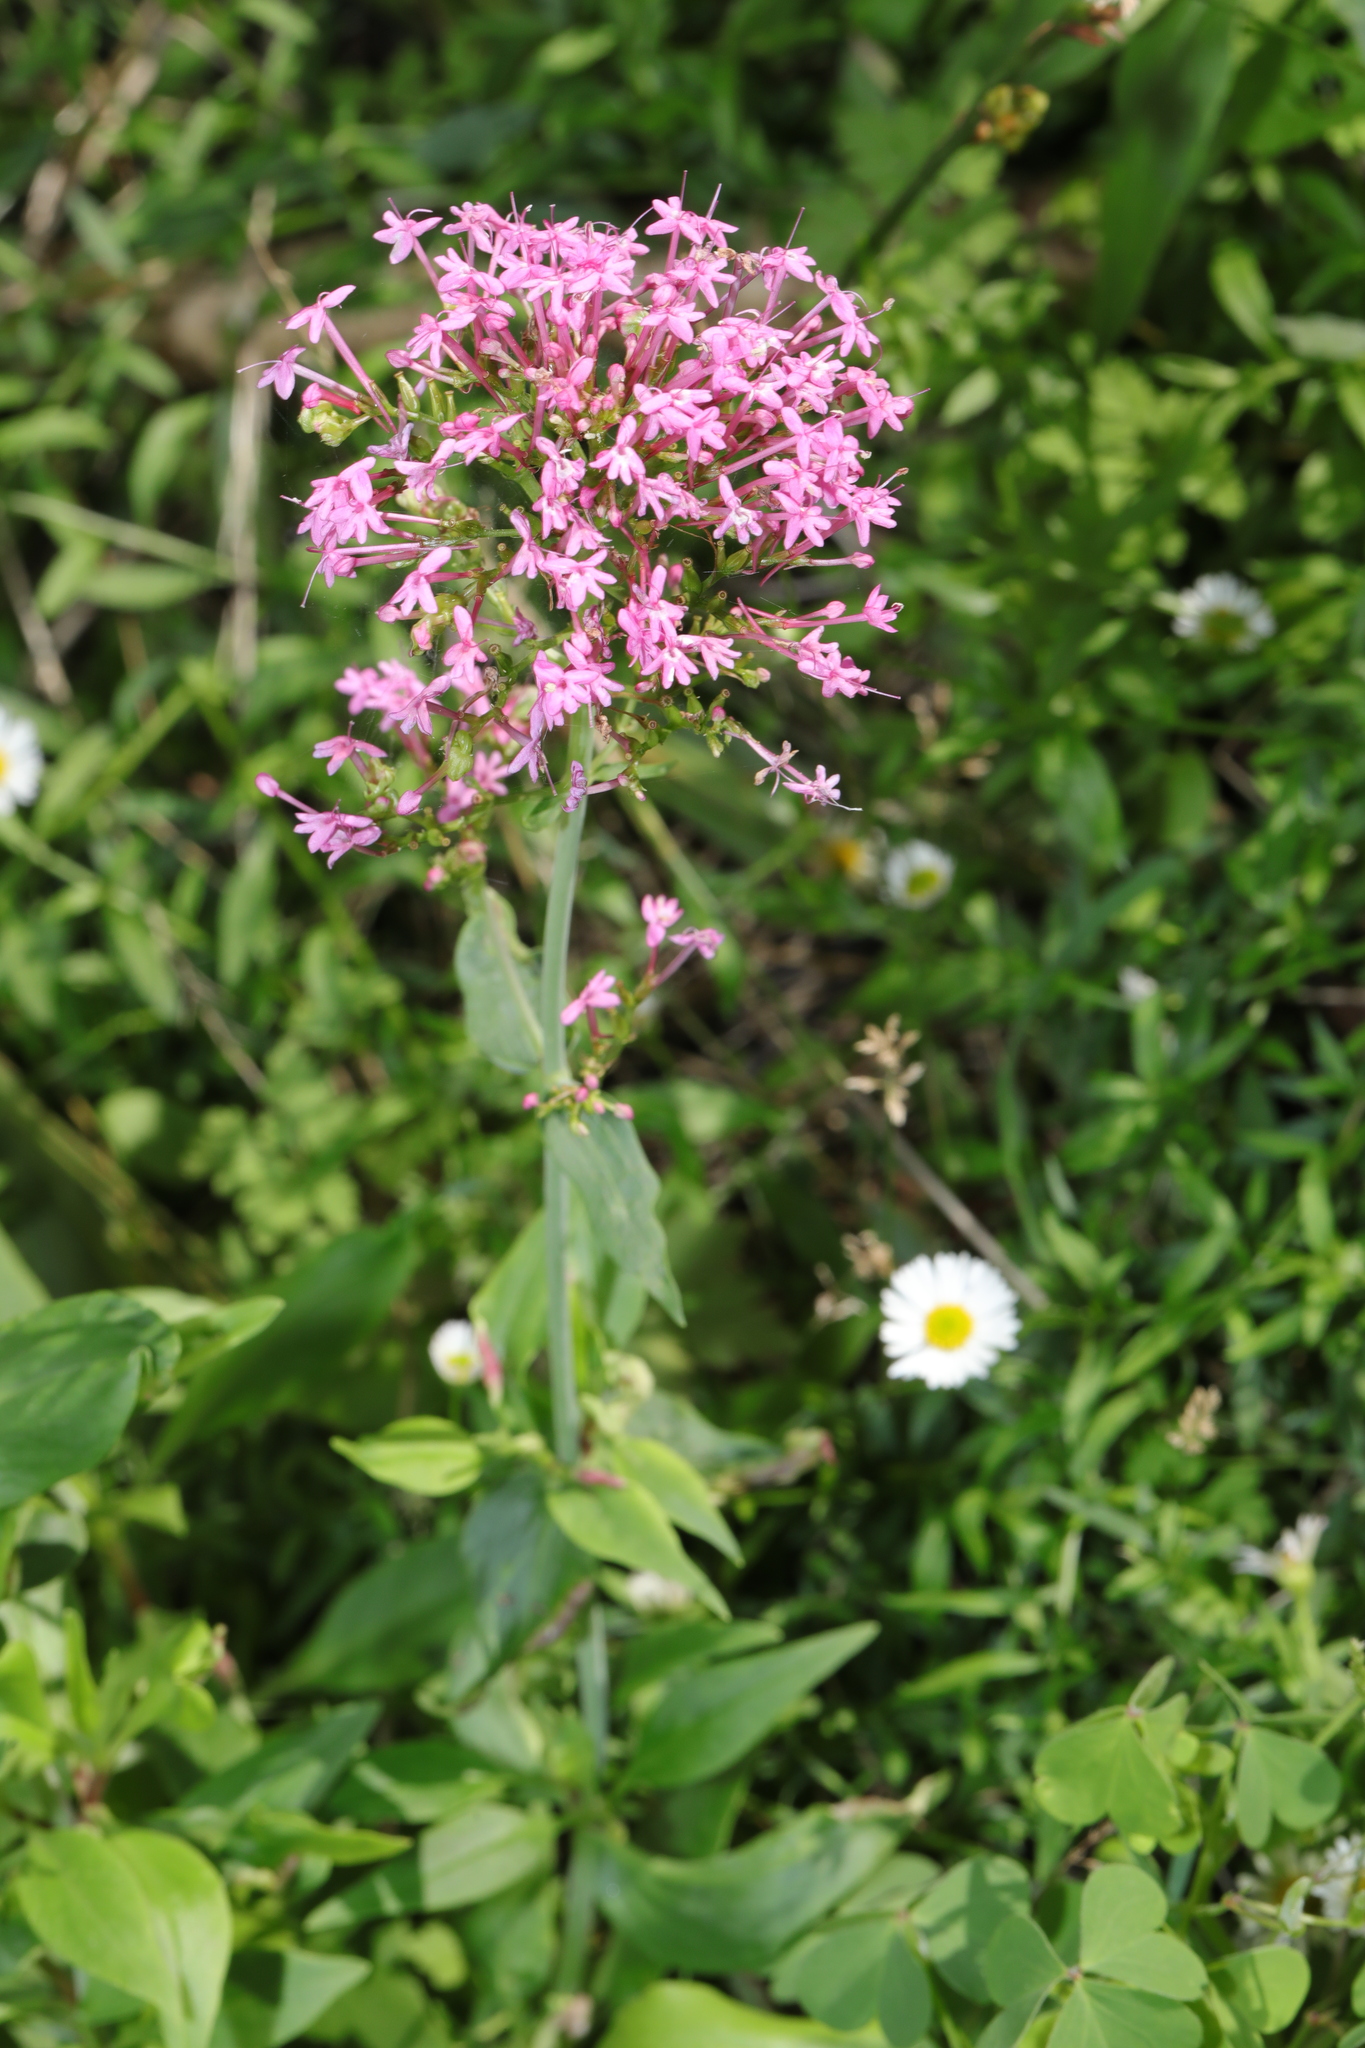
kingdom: Plantae
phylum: Tracheophyta
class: Magnoliopsida
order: Dipsacales
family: Caprifoliaceae
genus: Centranthus
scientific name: Centranthus ruber
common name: Red valerian
